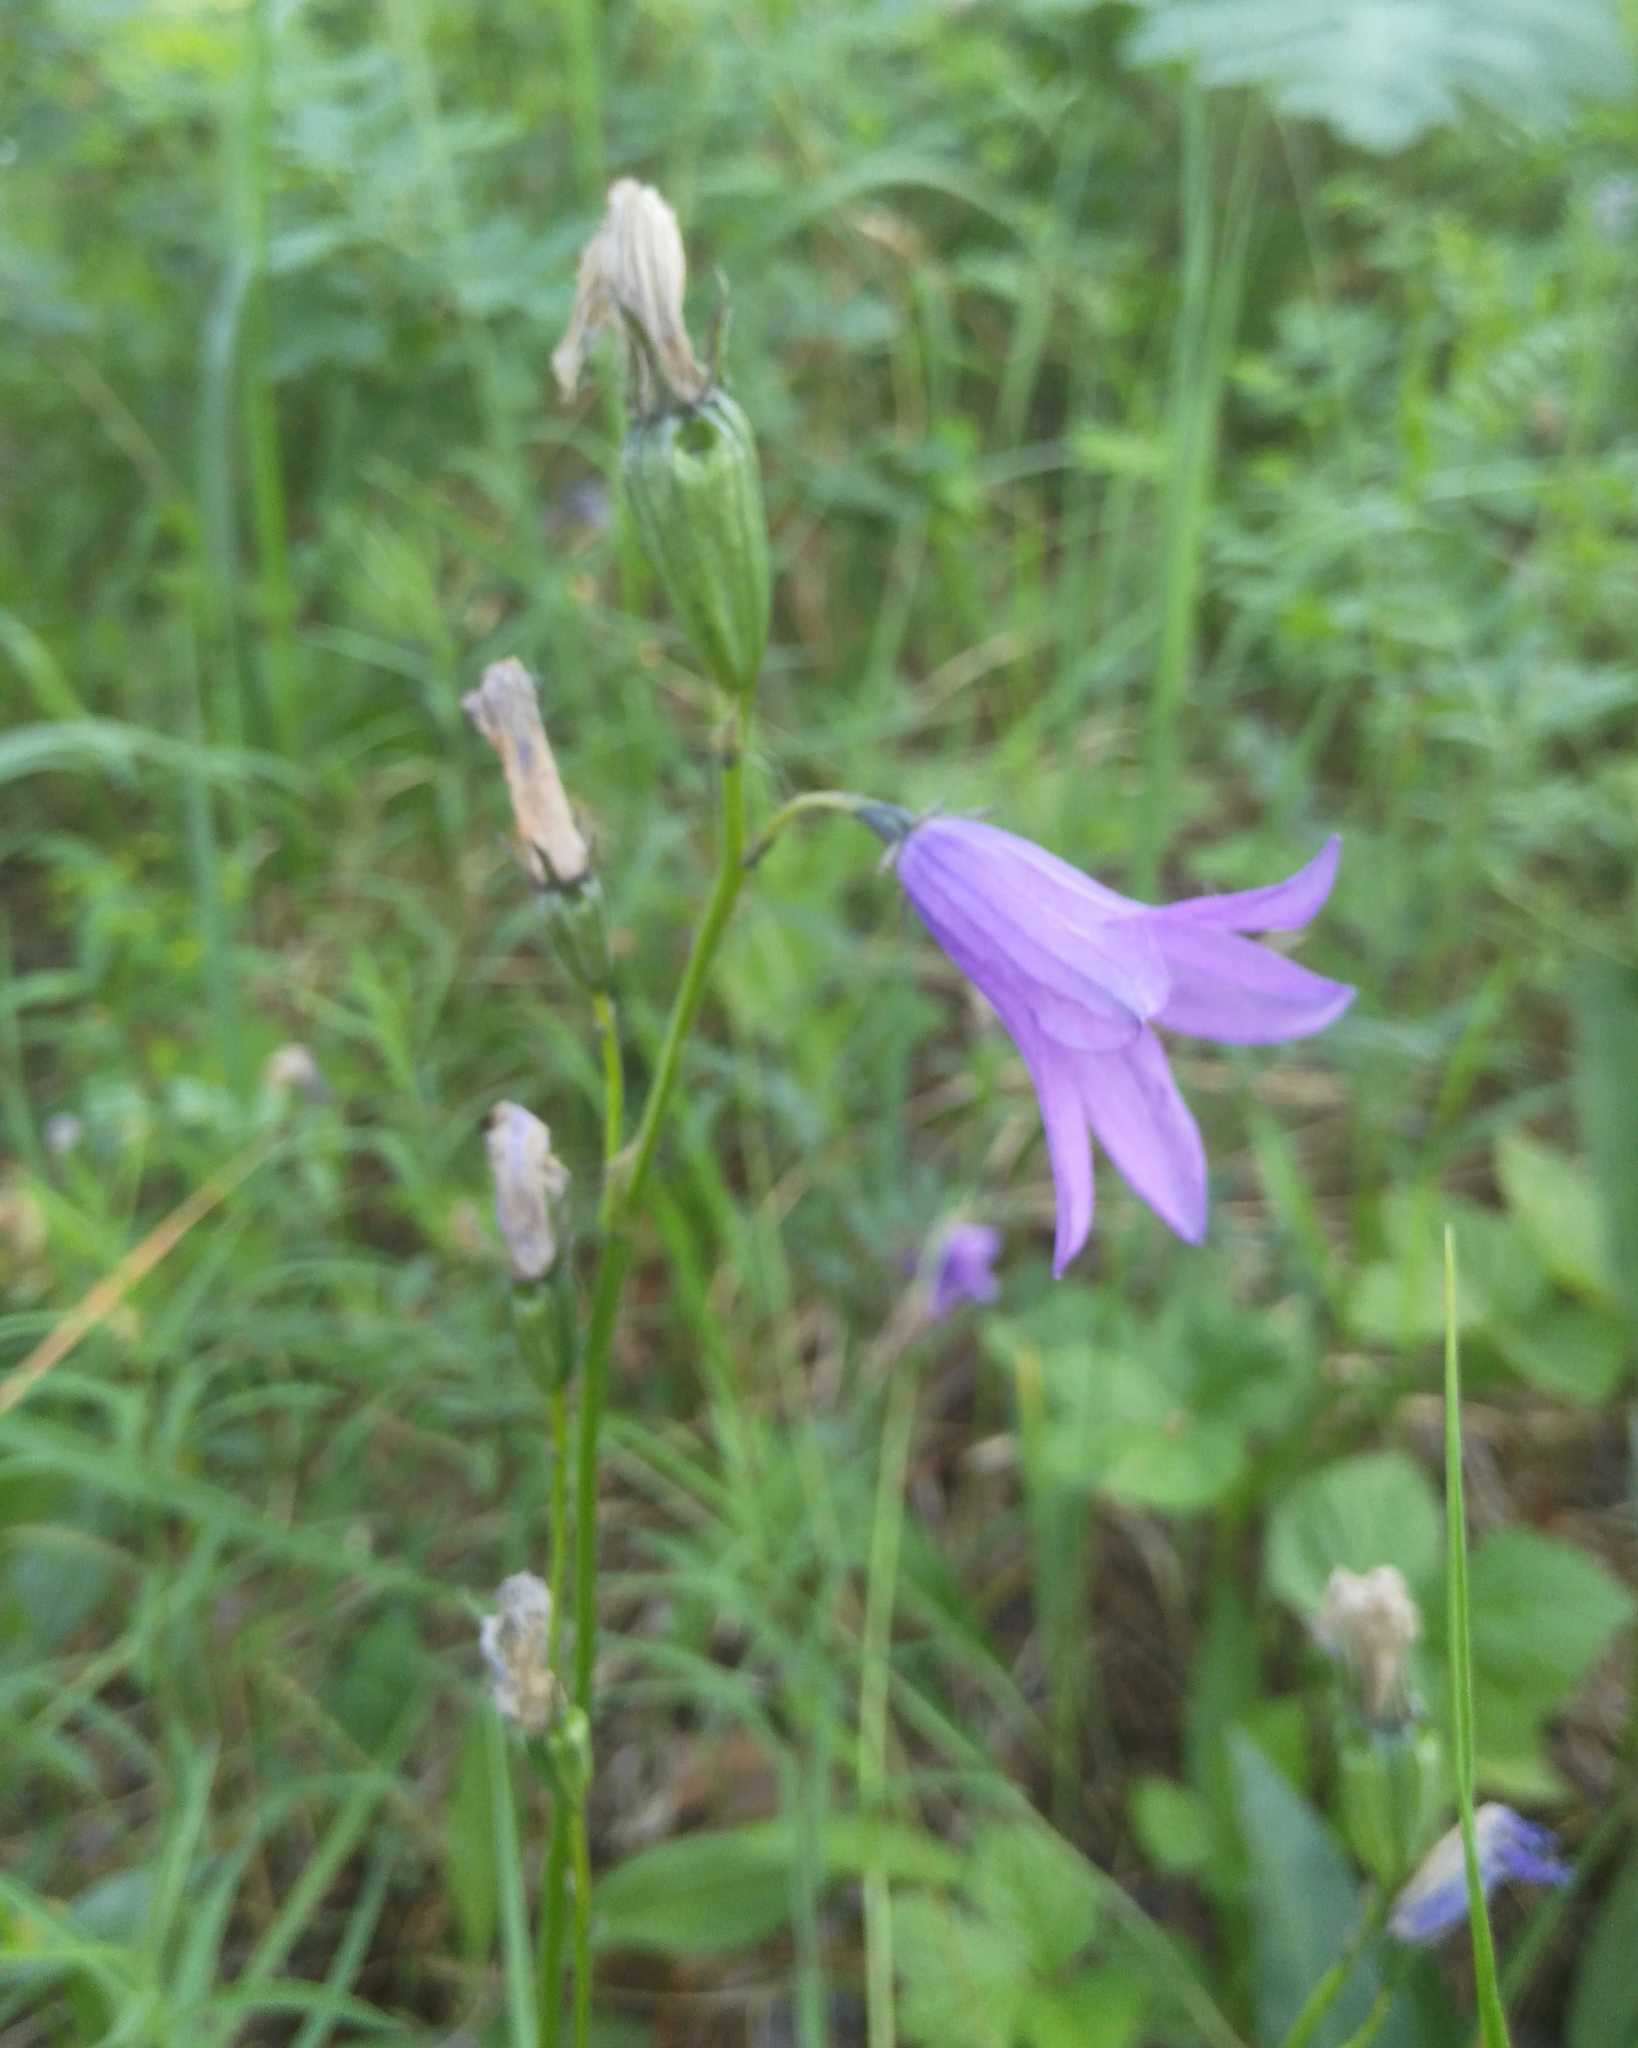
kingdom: Plantae
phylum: Tracheophyta
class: Magnoliopsida
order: Asterales
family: Campanulaceae
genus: Campanula
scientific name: Campanula stevenii
